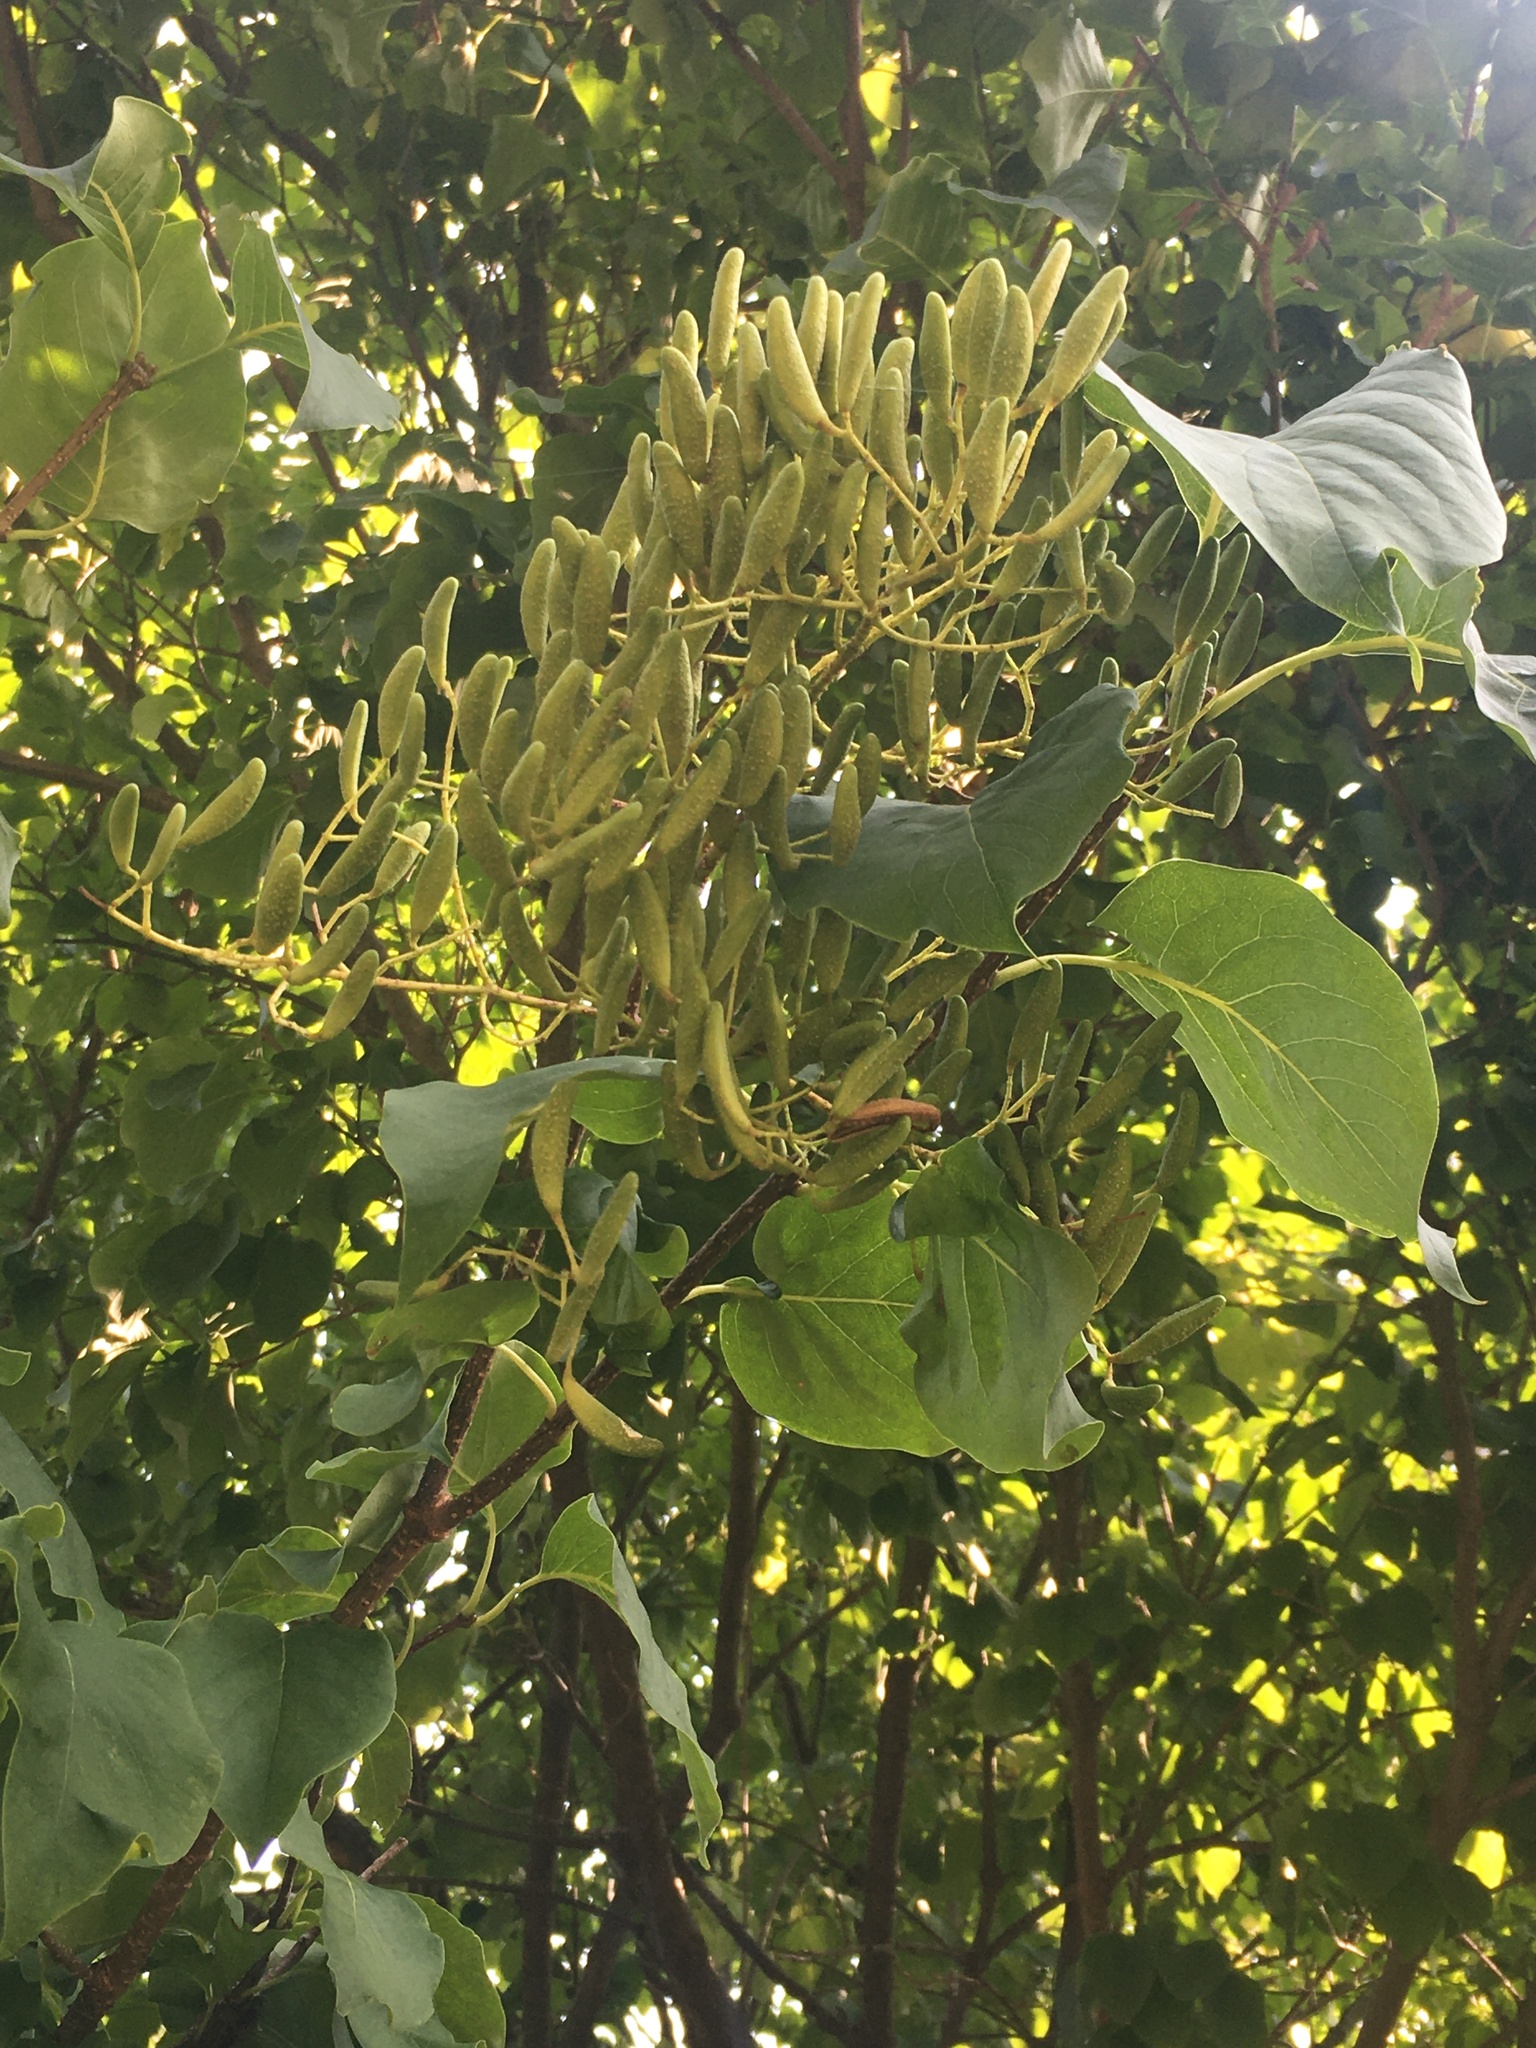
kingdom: Plantae
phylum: Tracheophyta
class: Magnoliopsida
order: Lamiales
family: Oleaceae
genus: Syringa
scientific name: Syringa reticulata
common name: Japanese tree lilac
